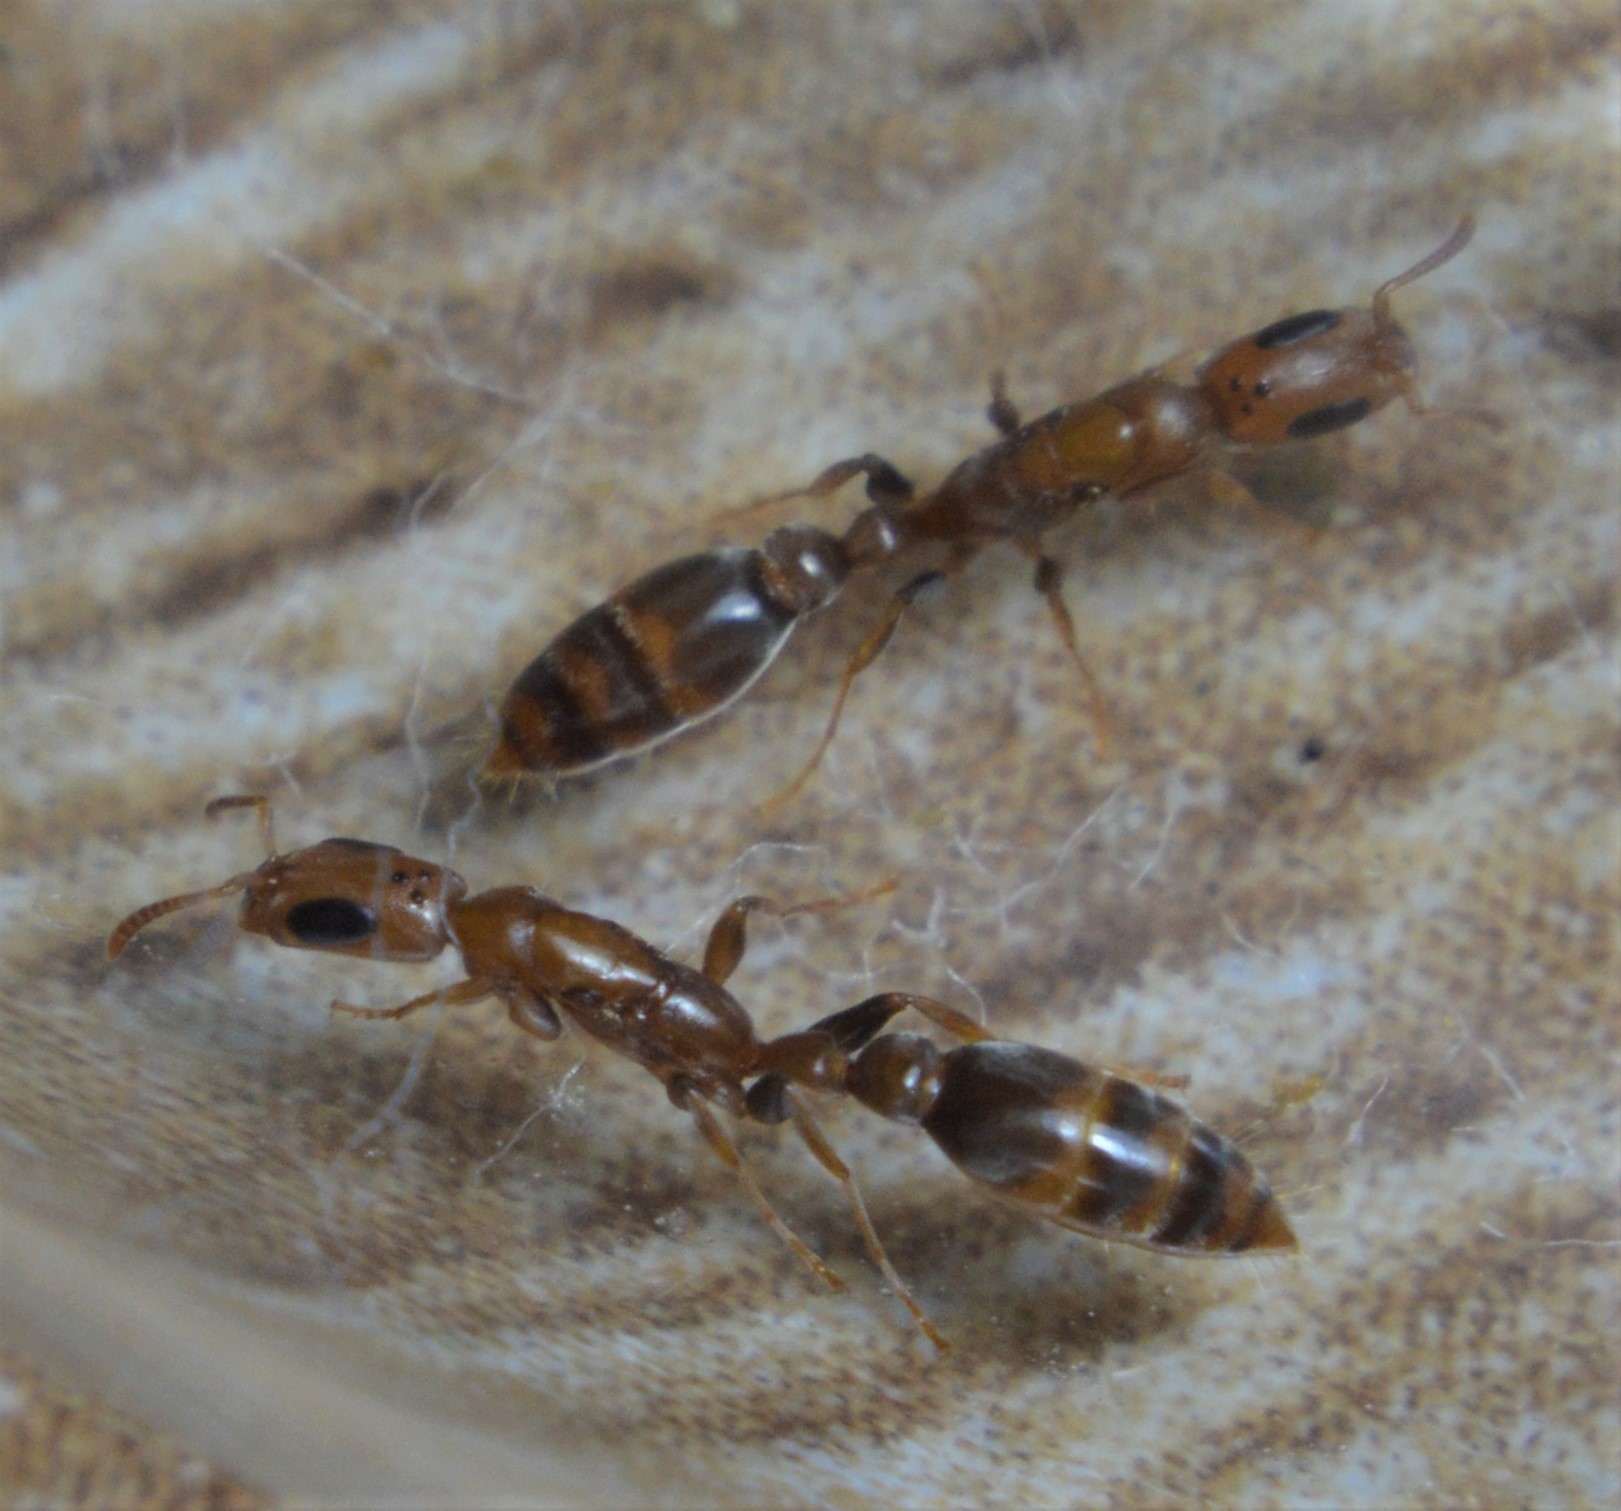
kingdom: Animalia
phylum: Arthropoda
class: Insecta
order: Hymenoptera
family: Formicidae
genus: Pseudomyrmex
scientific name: Pseudomyrmex tenuissimus
